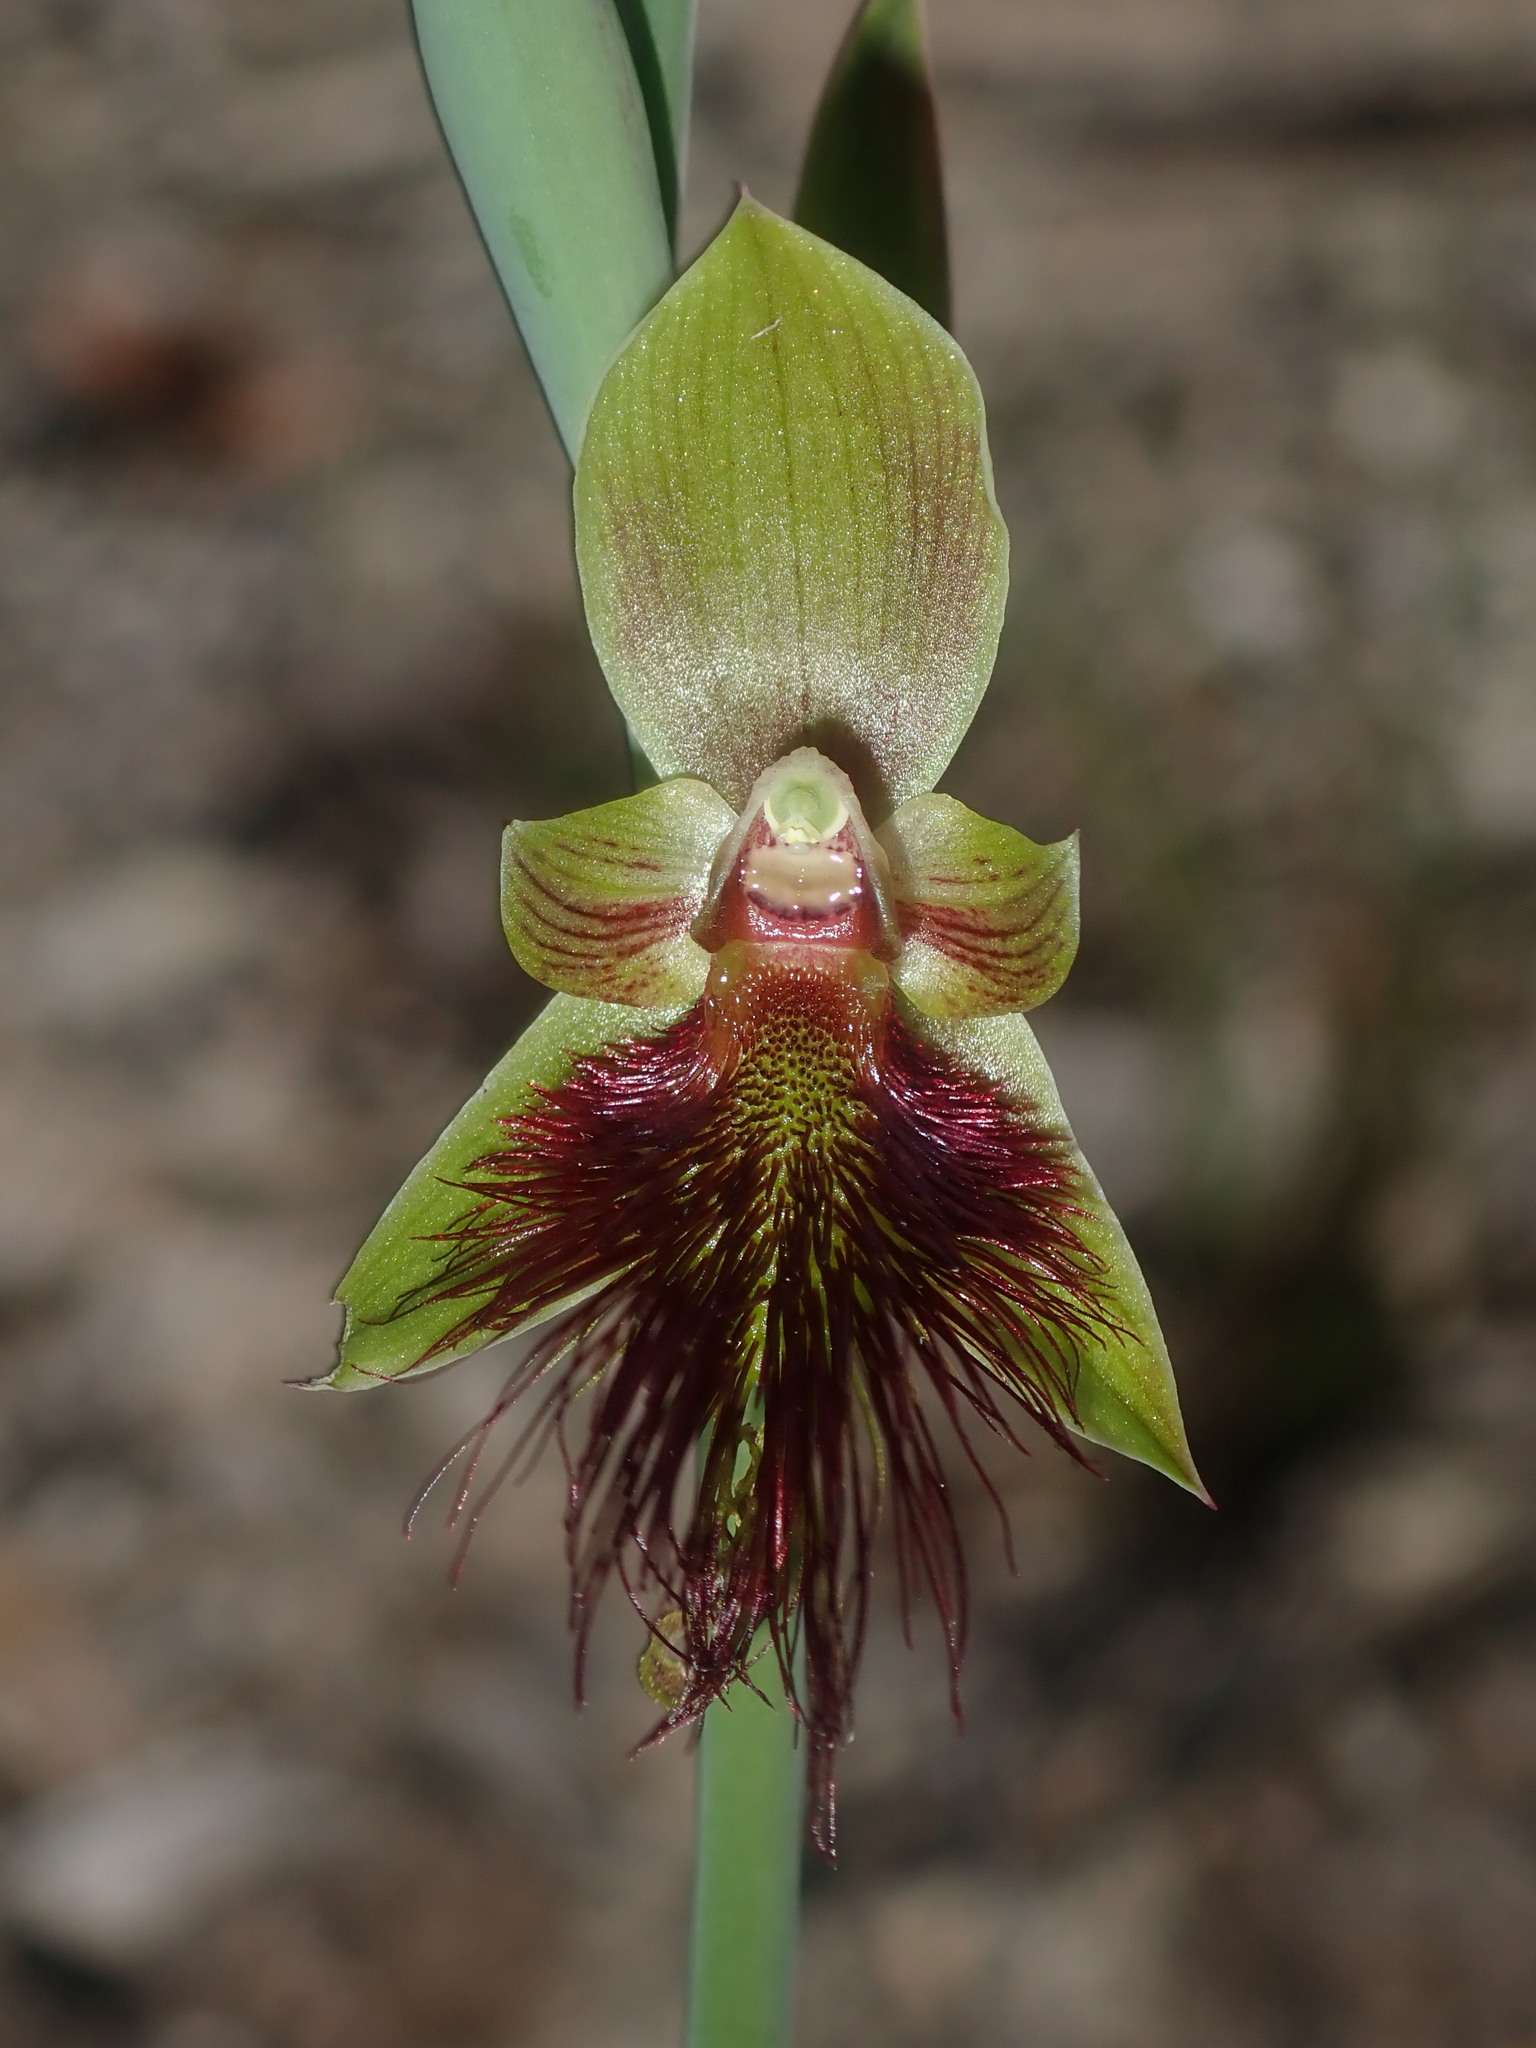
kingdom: Plantae
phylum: Tracheophyta
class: Liliopsida
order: Asparagales
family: Orchidaceae
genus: Calochilus
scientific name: Calochilus paludosus
